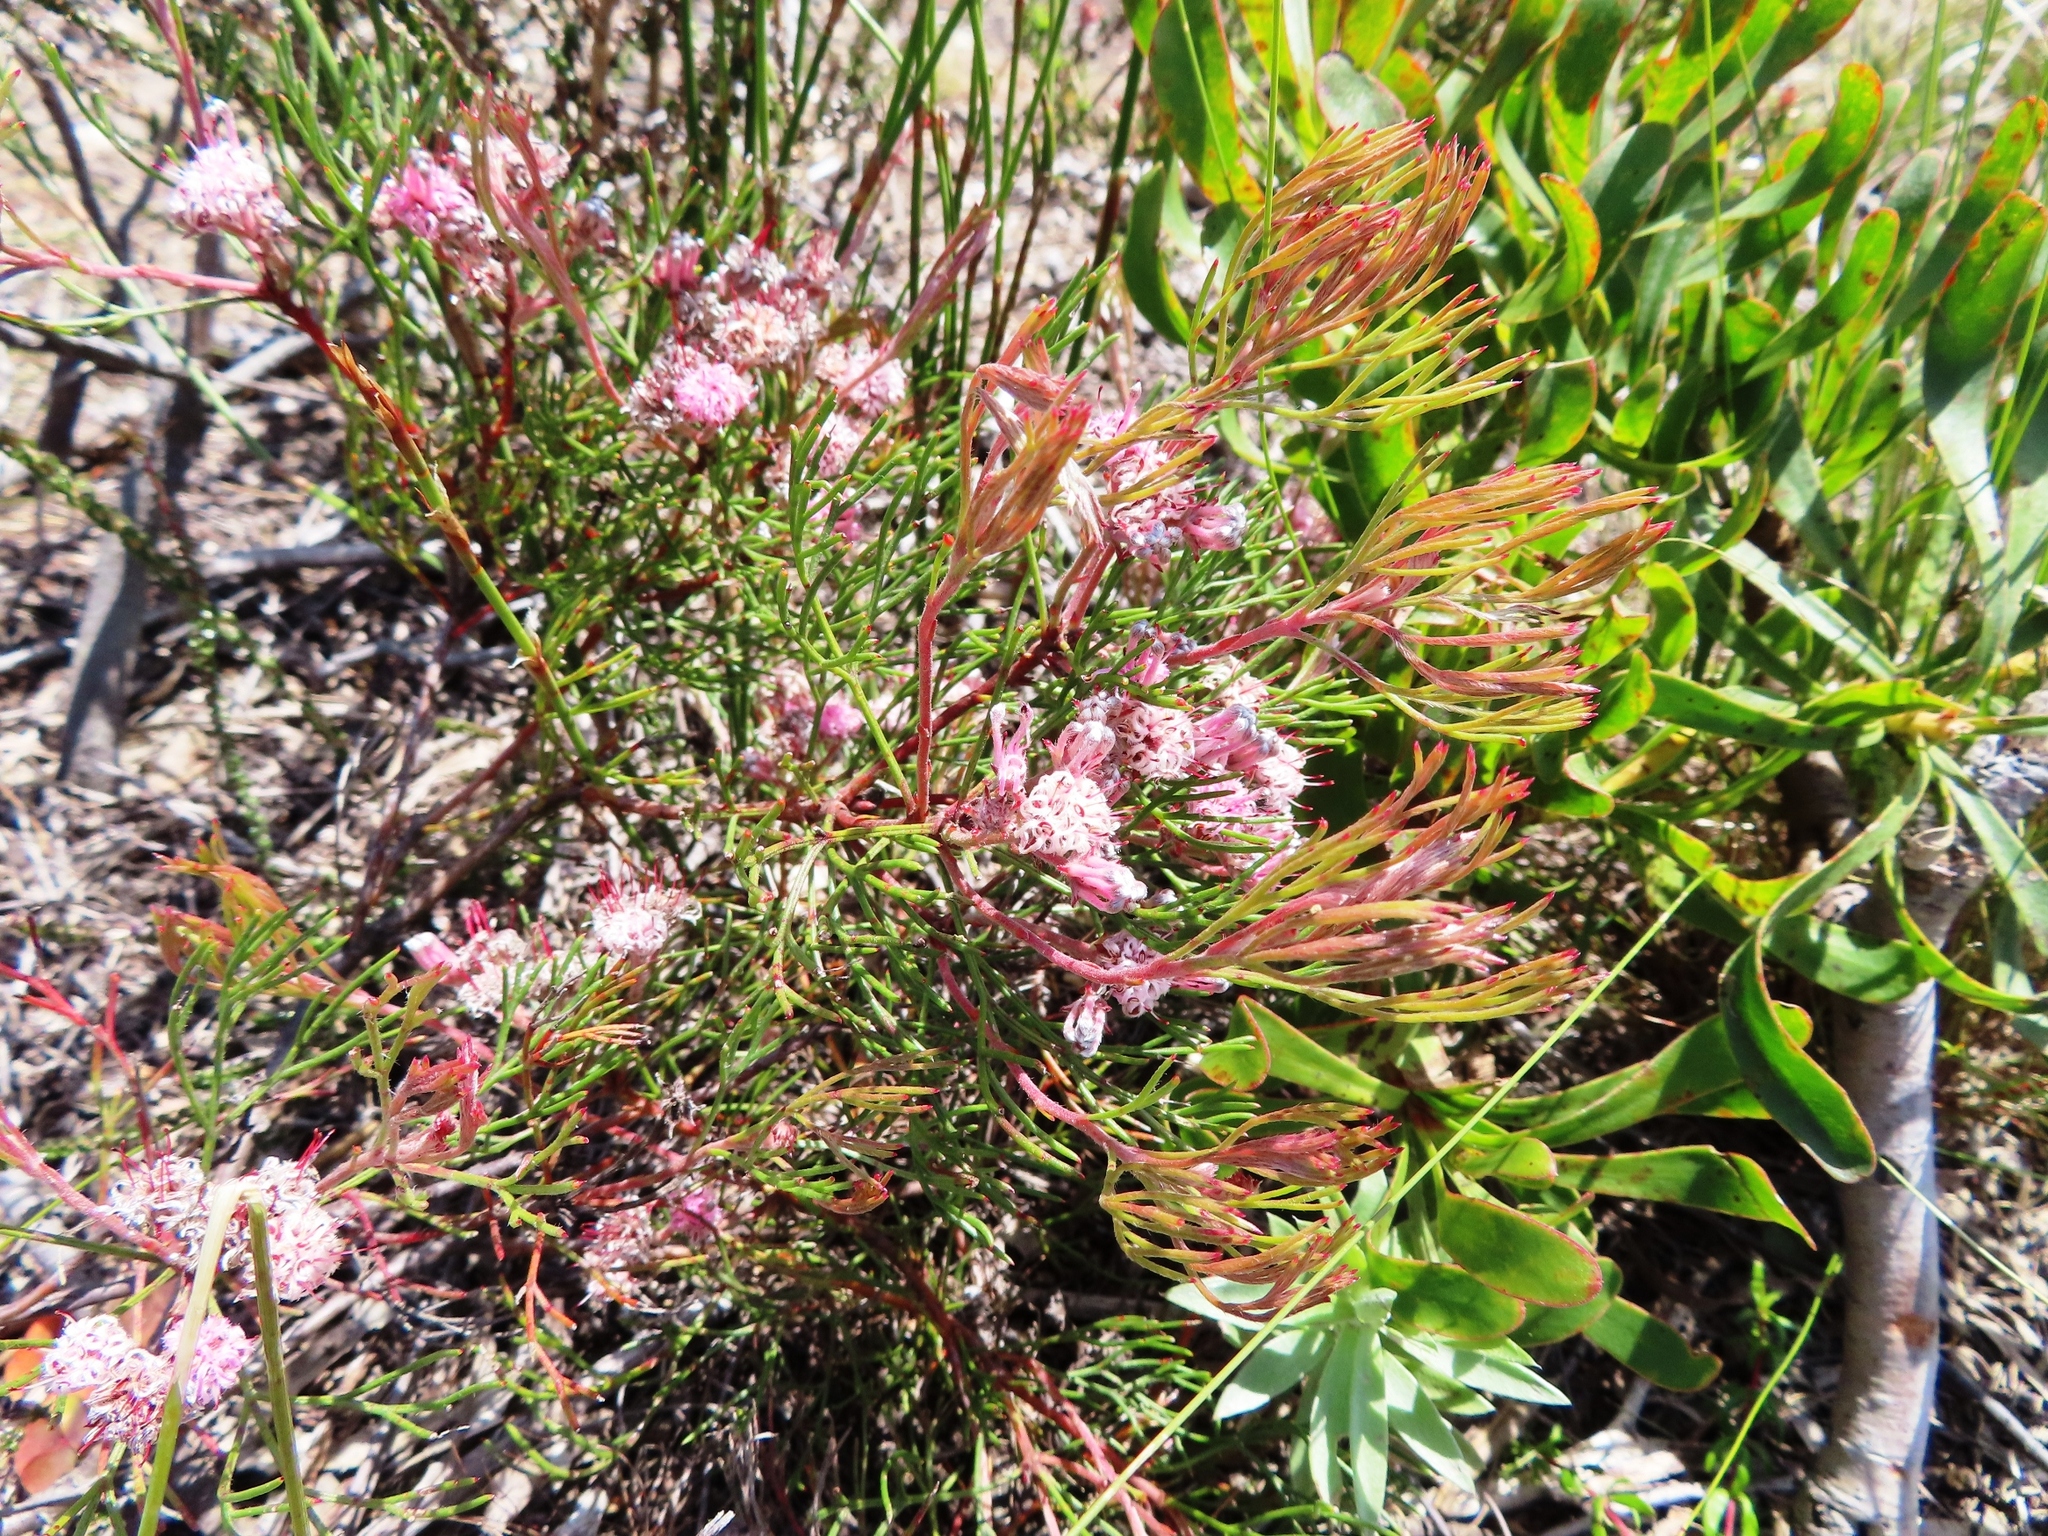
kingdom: Plantae
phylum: Tracheophyta
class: Magnoliopsida
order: Proteales
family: Proteaceae
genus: Serruria
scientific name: Serruria fasciflora
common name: Common pin spiderhead
